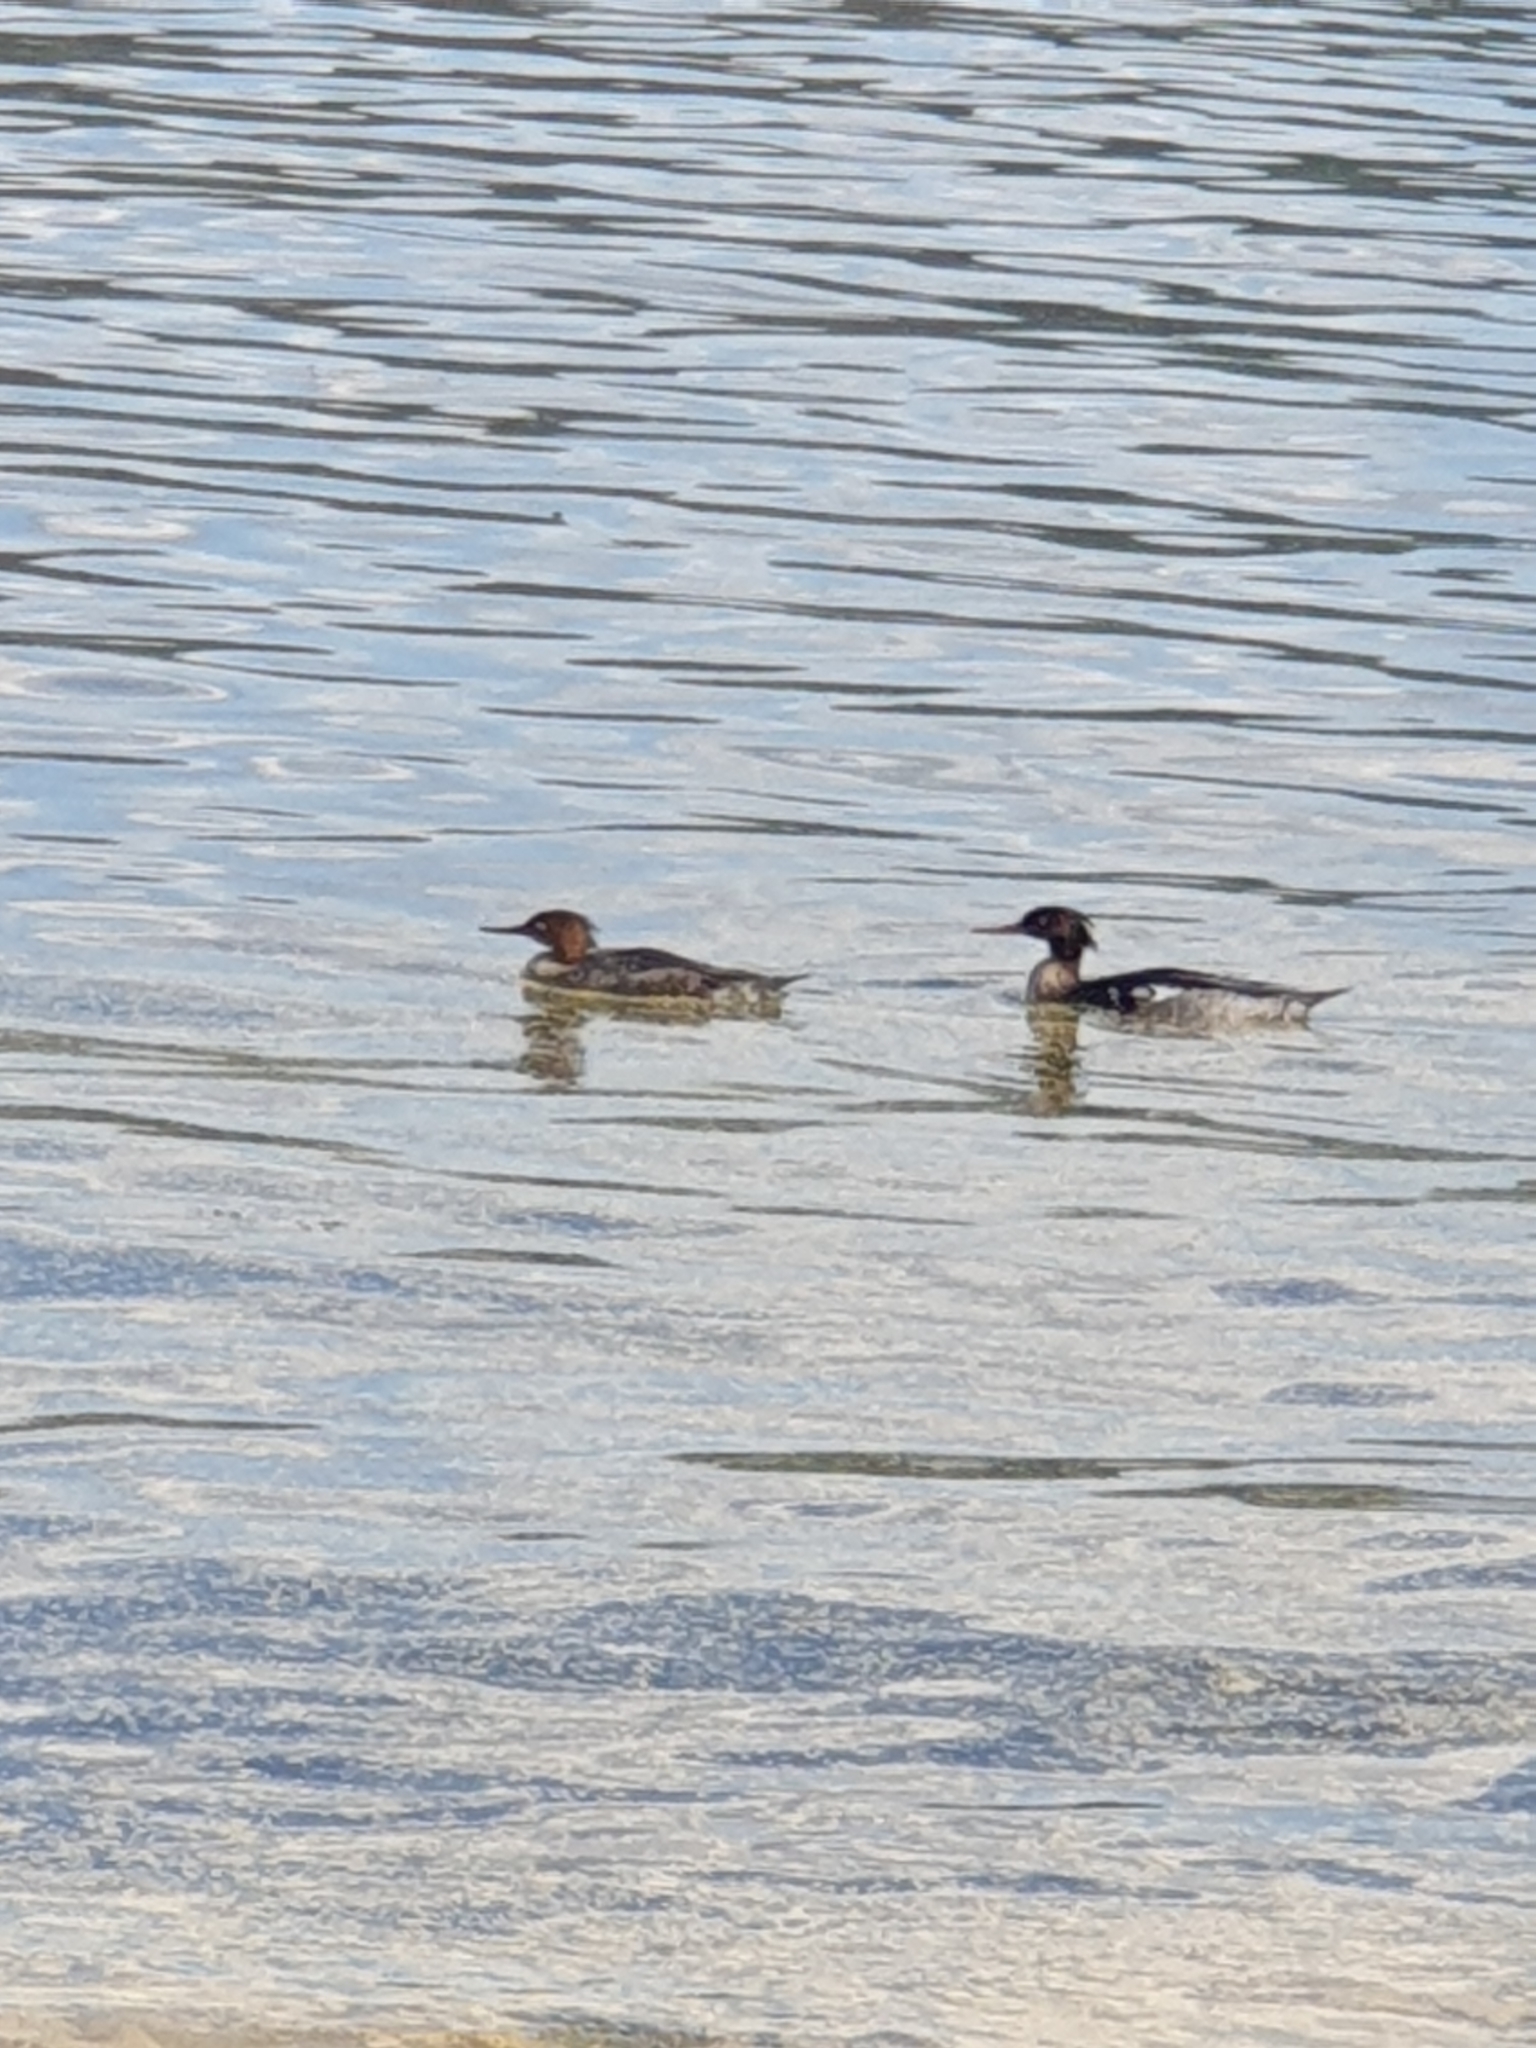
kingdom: Animalia
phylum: Chordata
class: Aves
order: Anseriformes
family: Anatidae
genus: Mergus
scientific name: Mergus serrator
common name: Red-breasted merganser
